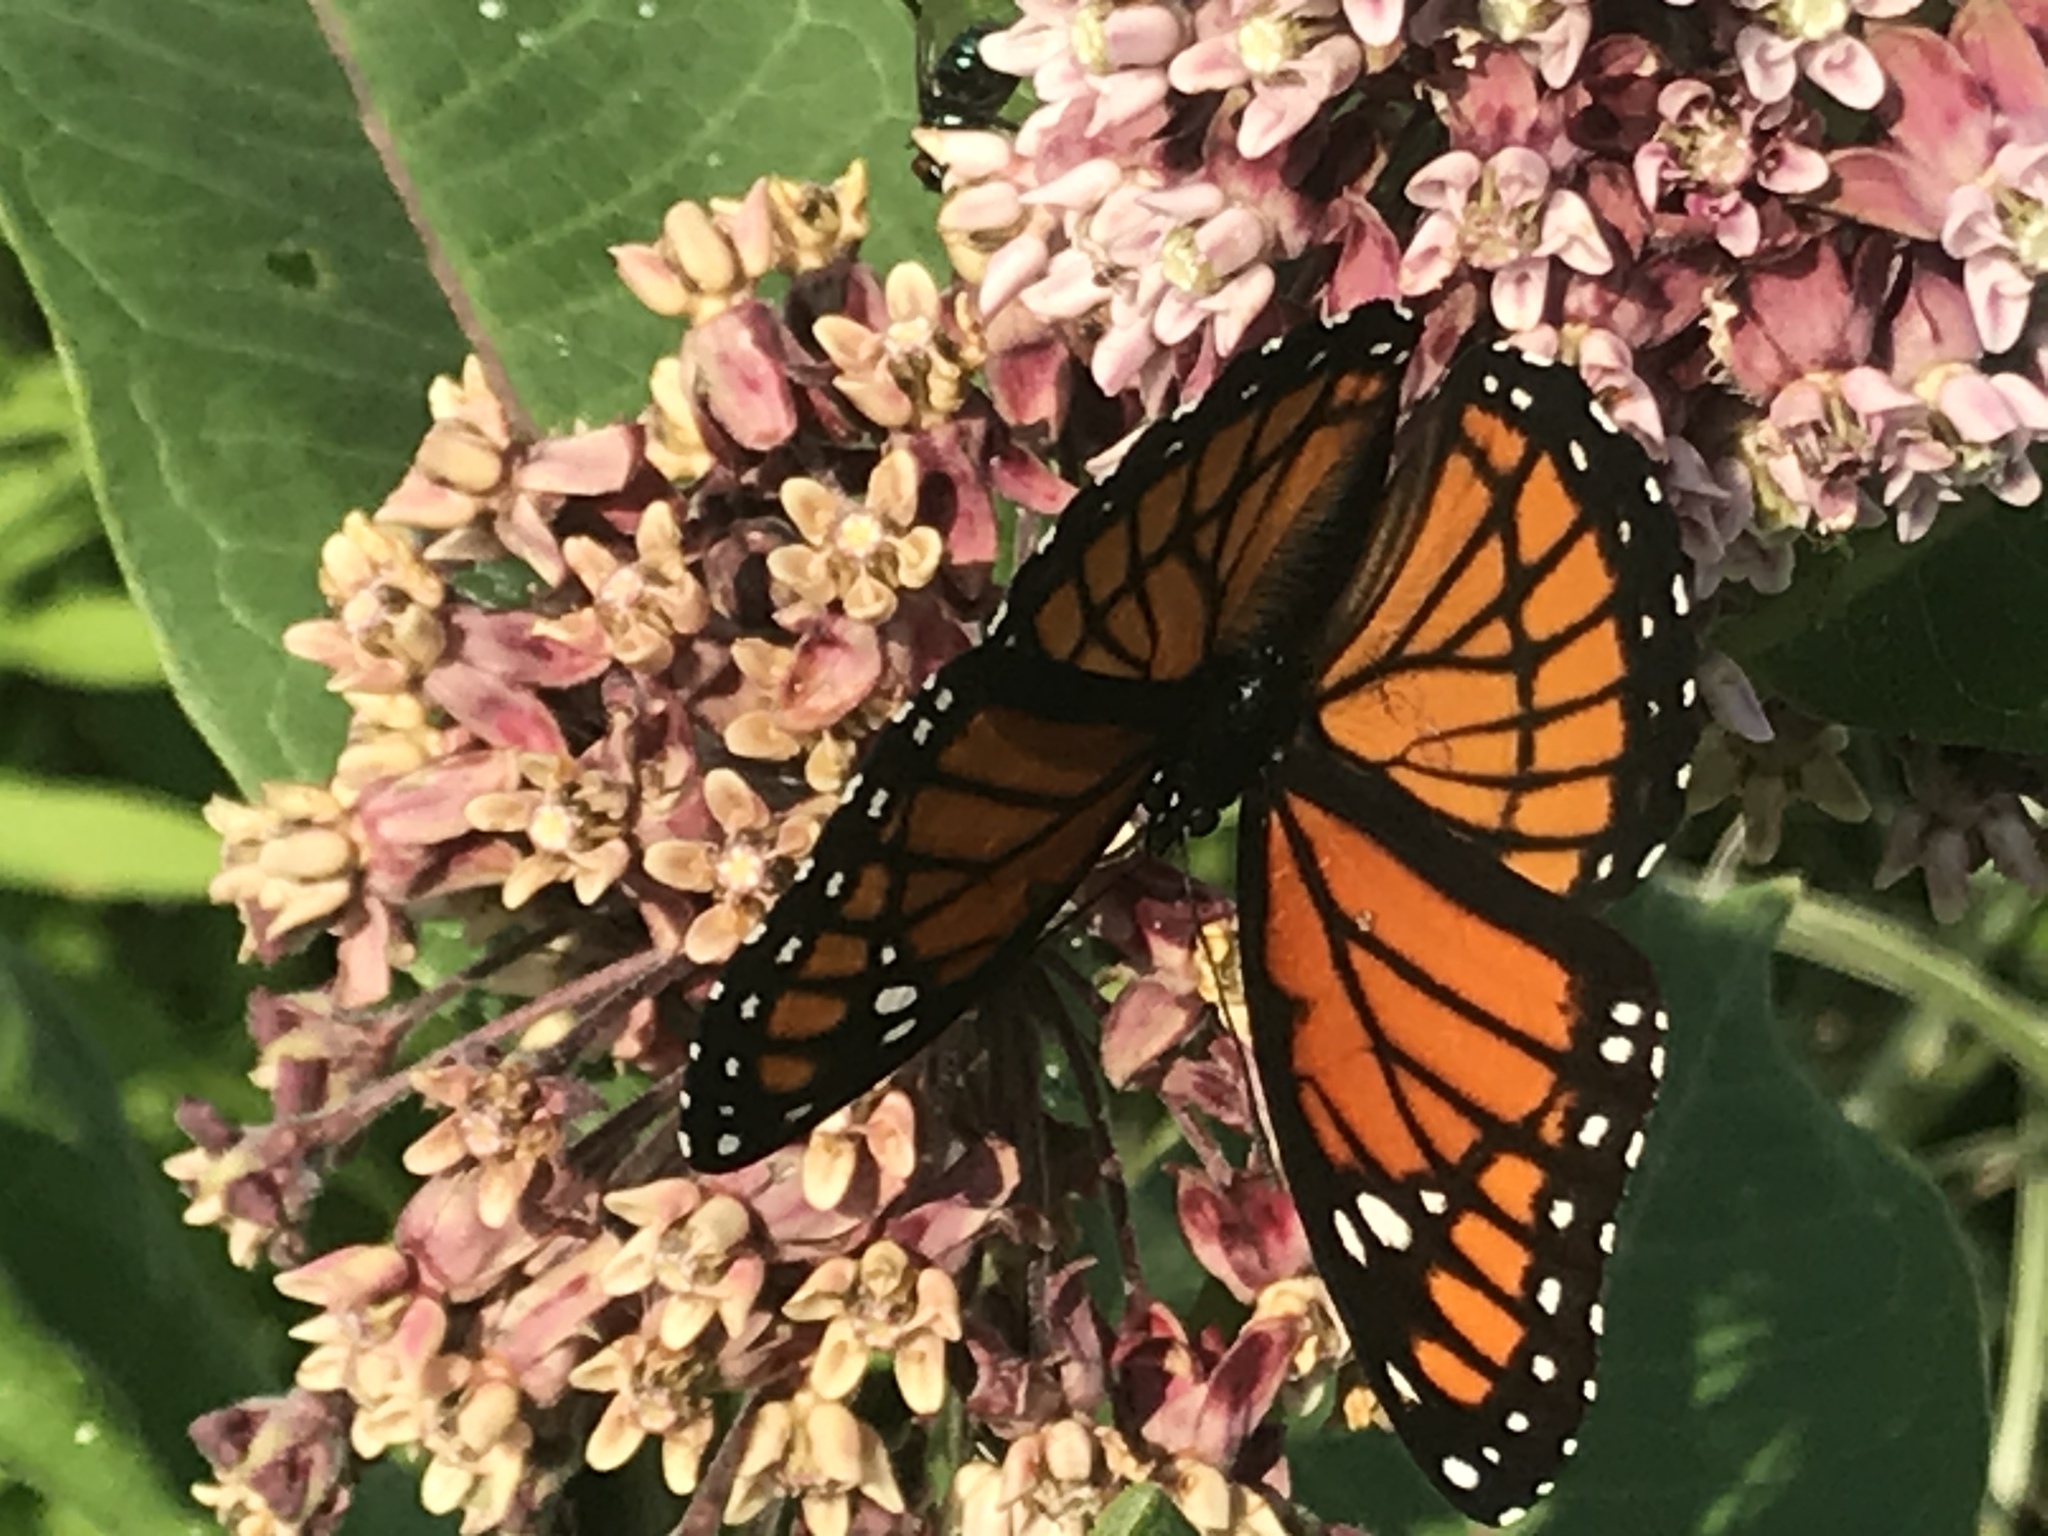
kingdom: Animalia
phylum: Arthropoda
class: Insecta
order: Lepidoptera
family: Nymphalidae
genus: Limenitis
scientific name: Limenitis archippus
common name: Viceroy
